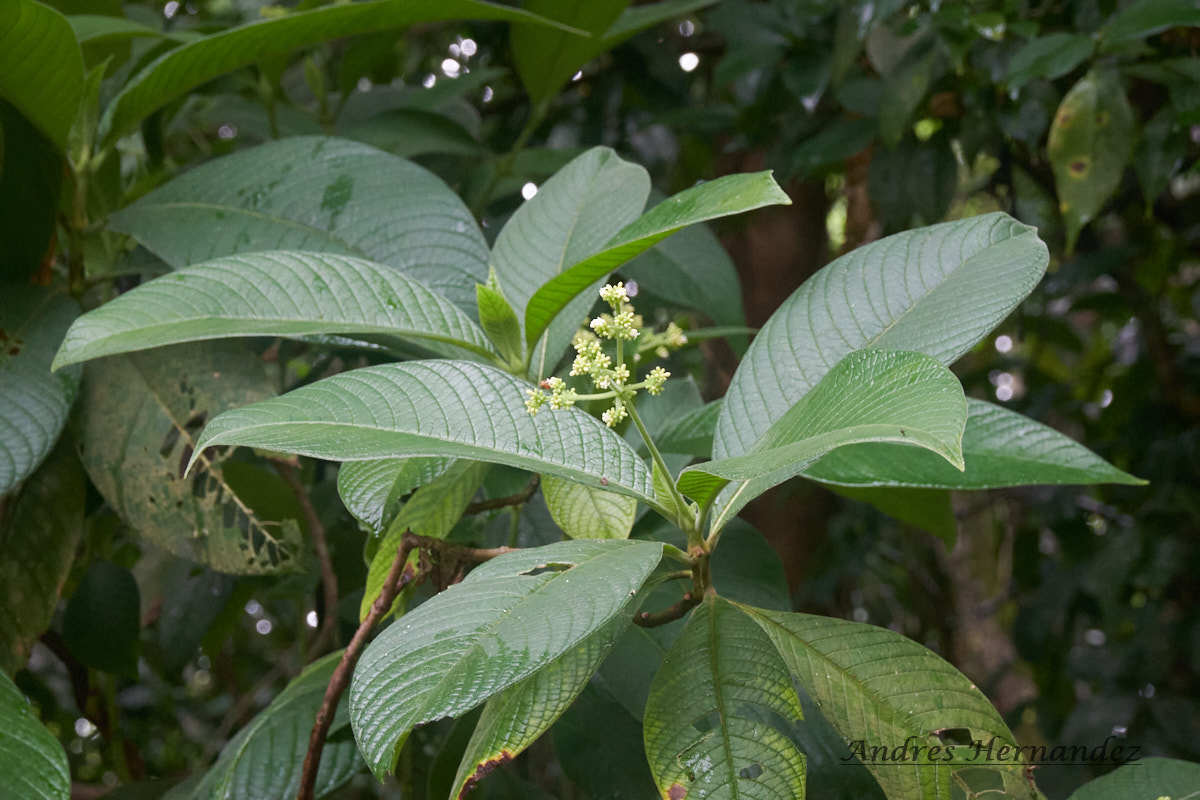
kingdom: Plantae
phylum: Tracheophyta
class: Magnoliopsida
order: Gentianales
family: Rubiaceae
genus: Psychotria
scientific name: Psychotria micrantha
